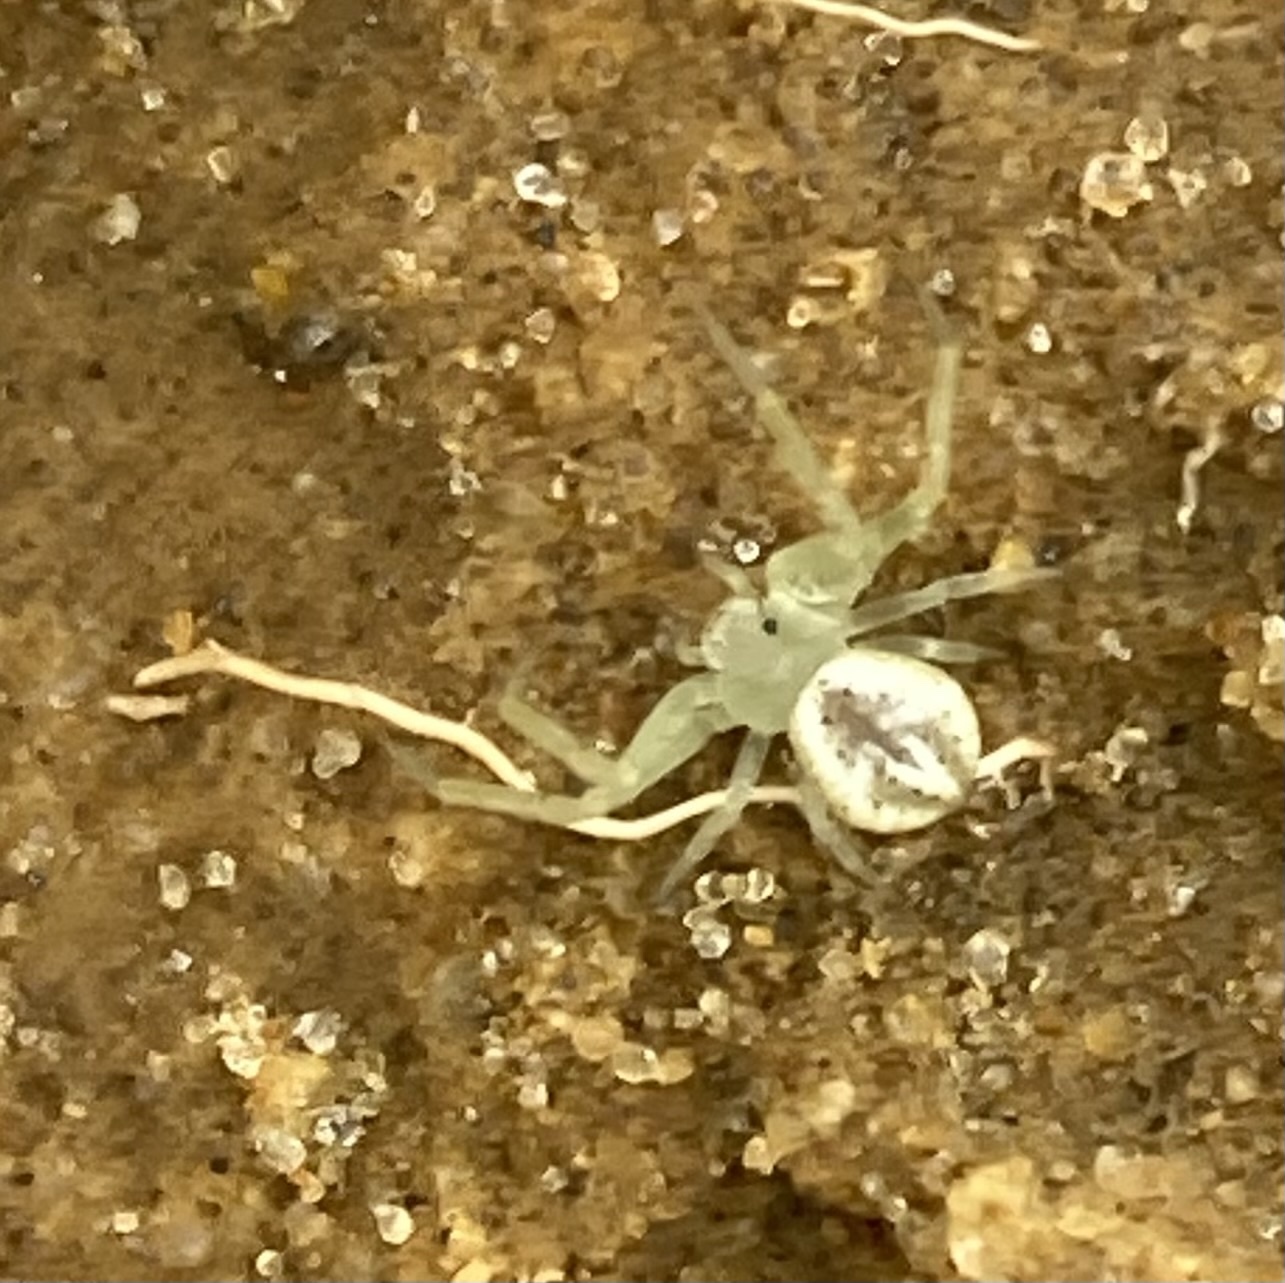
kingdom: Animalia
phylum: Arthropoda
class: Arachnida
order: Araneae
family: Thomisidae
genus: Misumenops
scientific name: Misumenops
